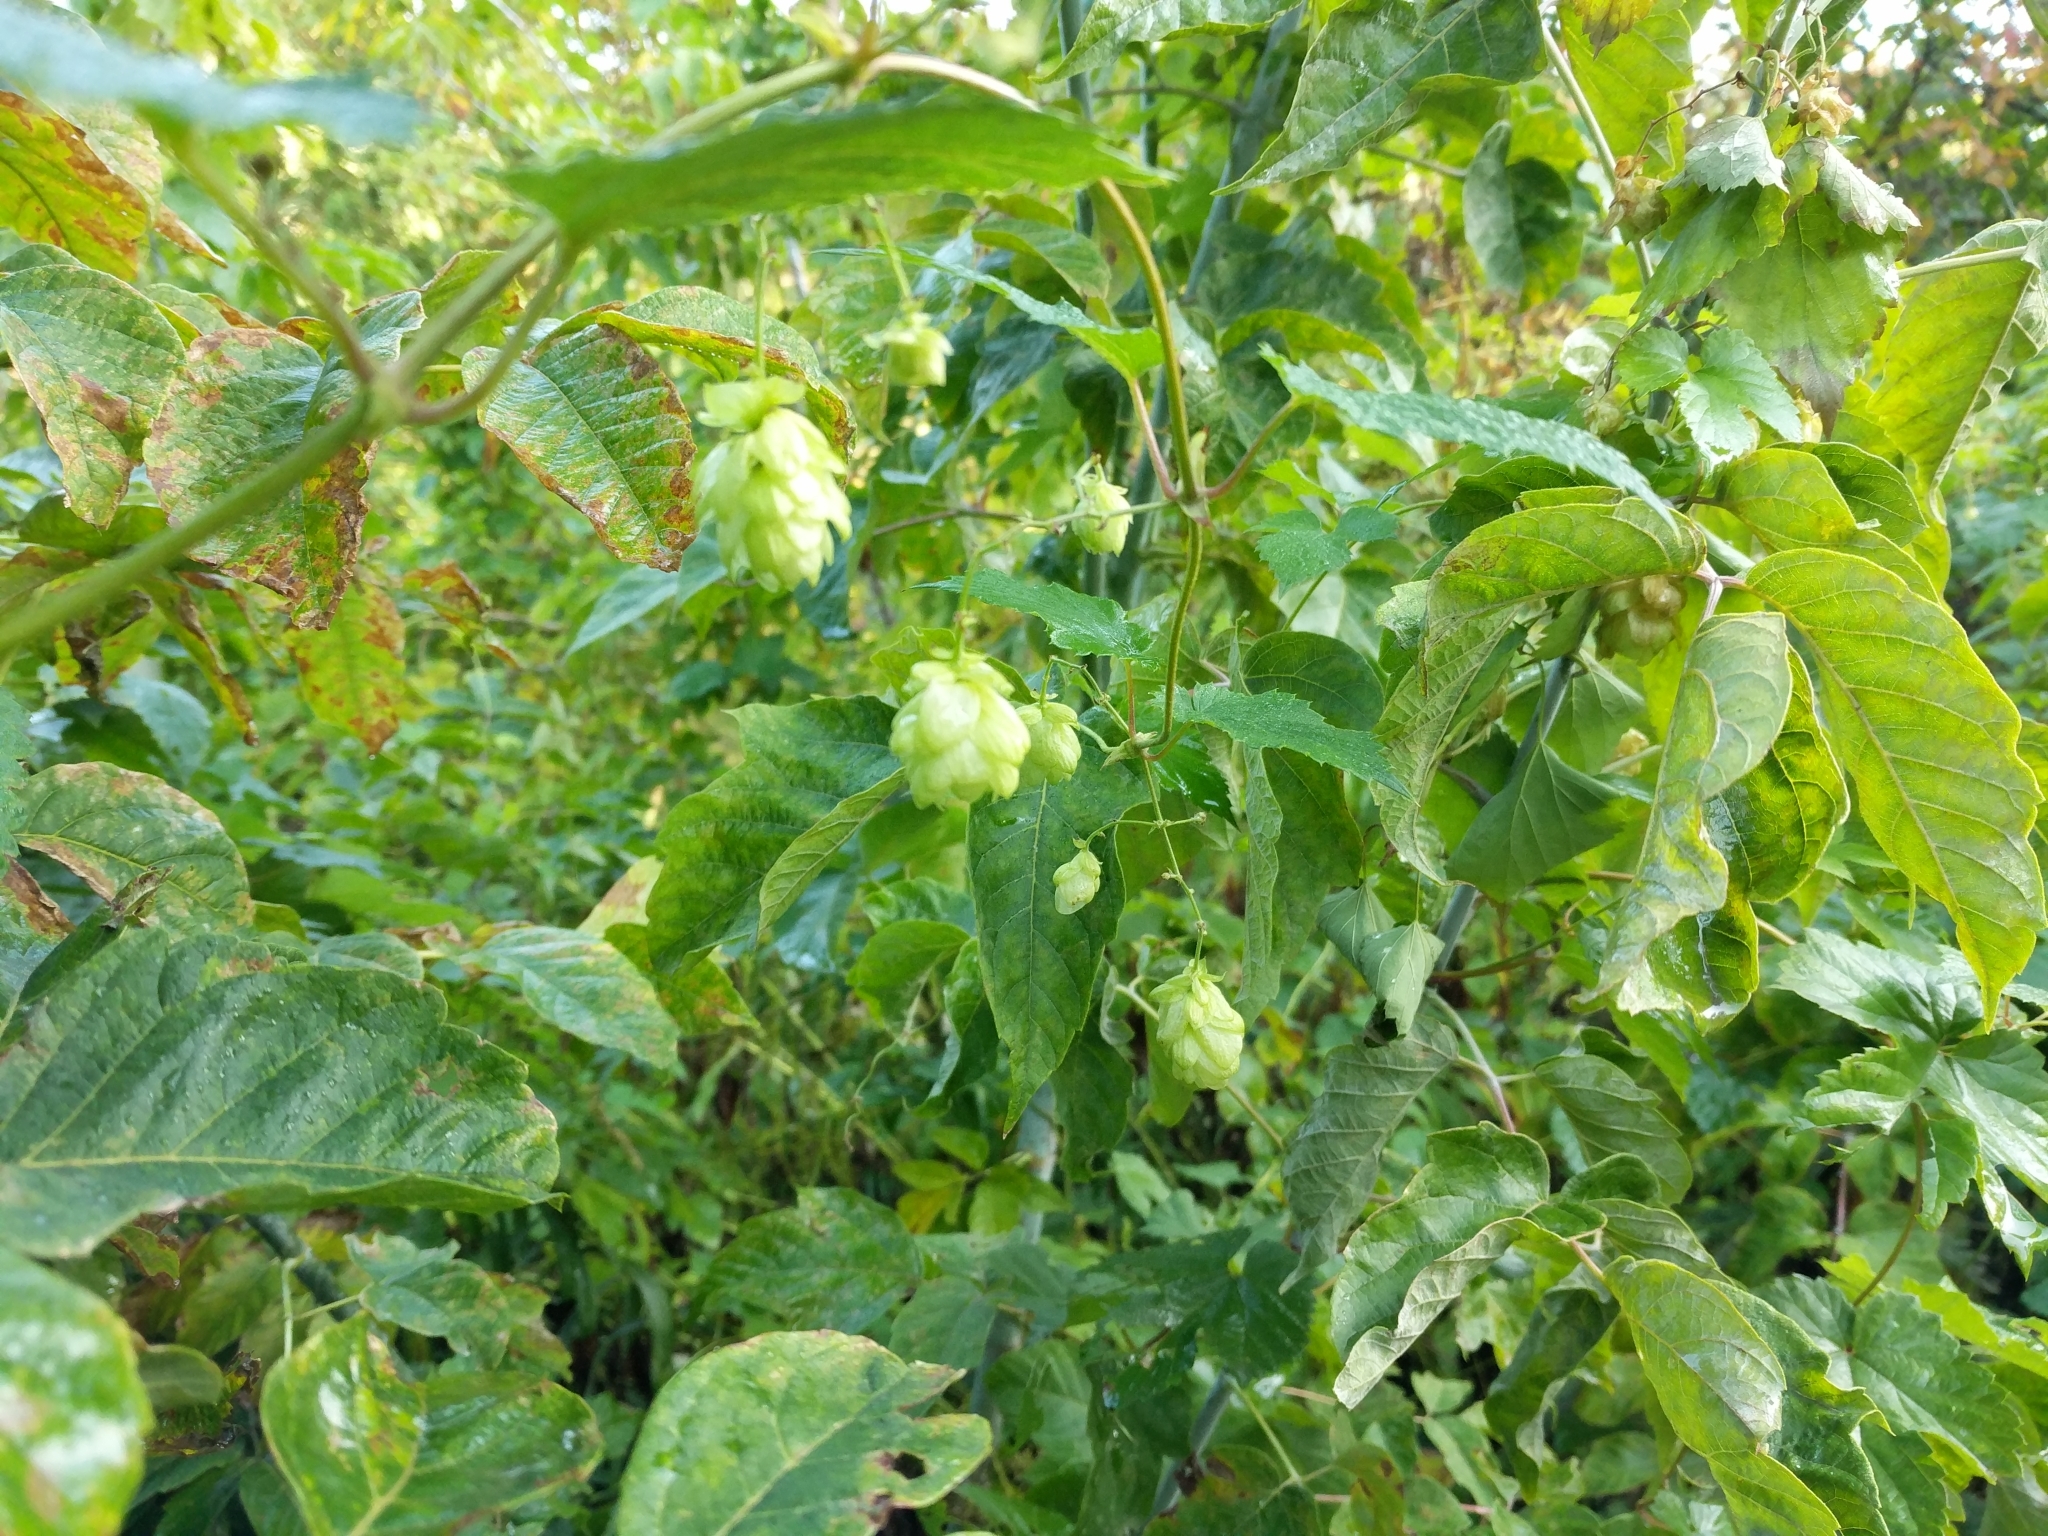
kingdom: Plantae
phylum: Tracheophyta
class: Magnoliopsida
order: Rosales
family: Cannabaceae
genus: Humulus
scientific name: Humulus lupulus
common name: Hop
